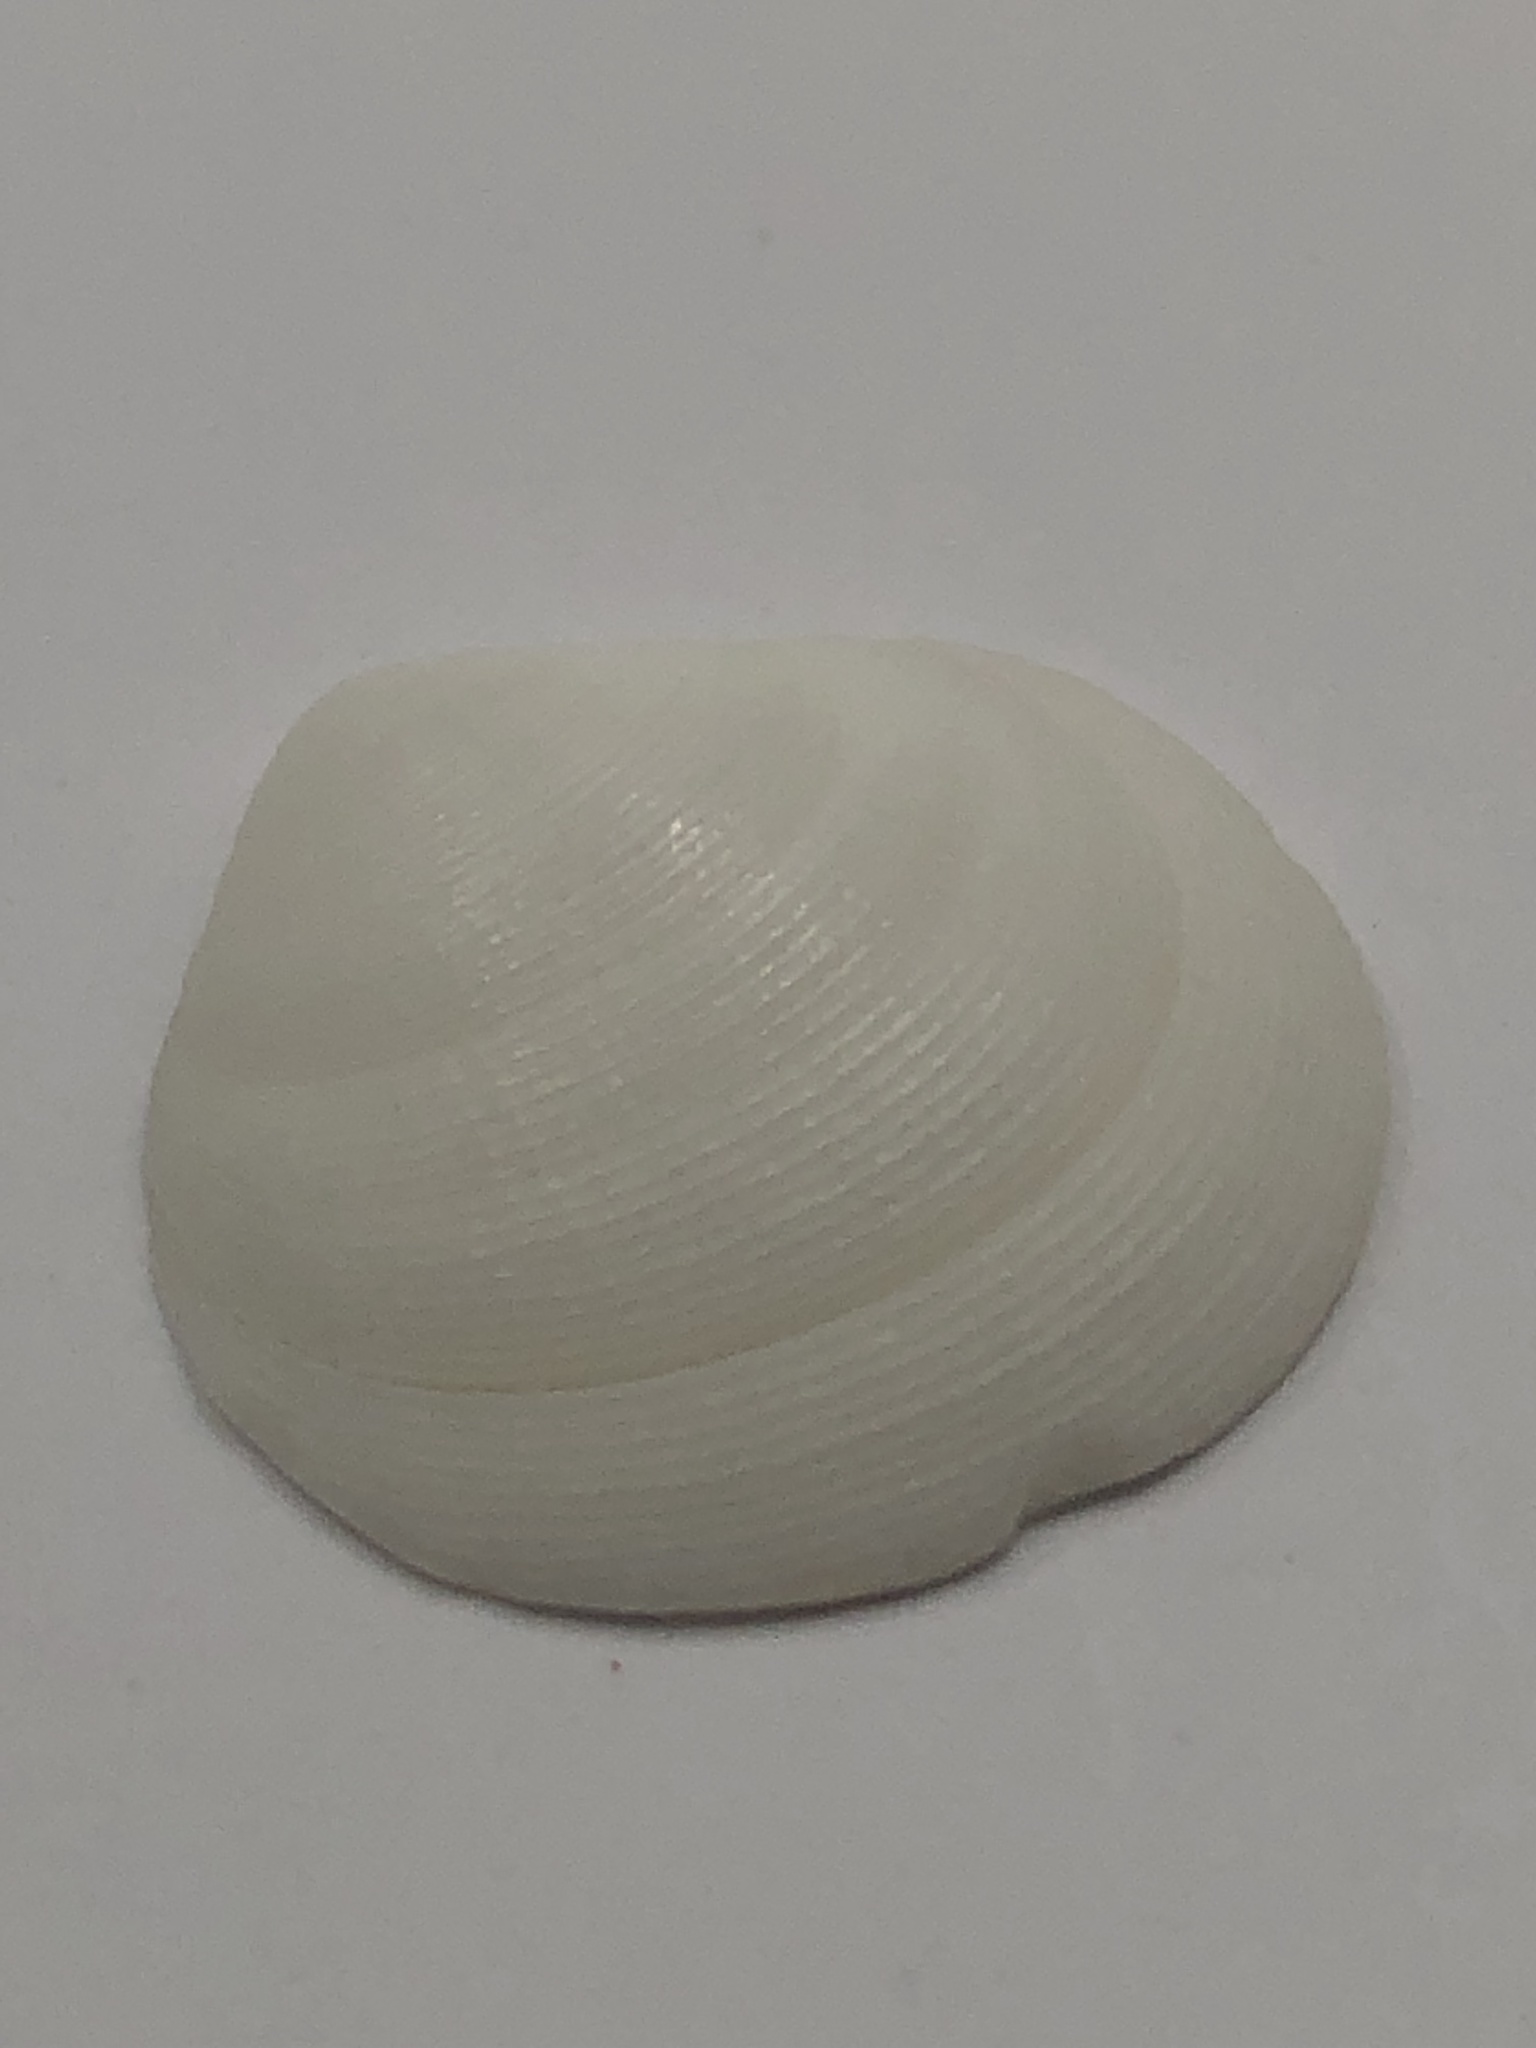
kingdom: Animalia
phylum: Mollusca
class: Bivalvia
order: Lucinida
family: Lucinidae
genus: Callucina
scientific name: Callucina keenae
